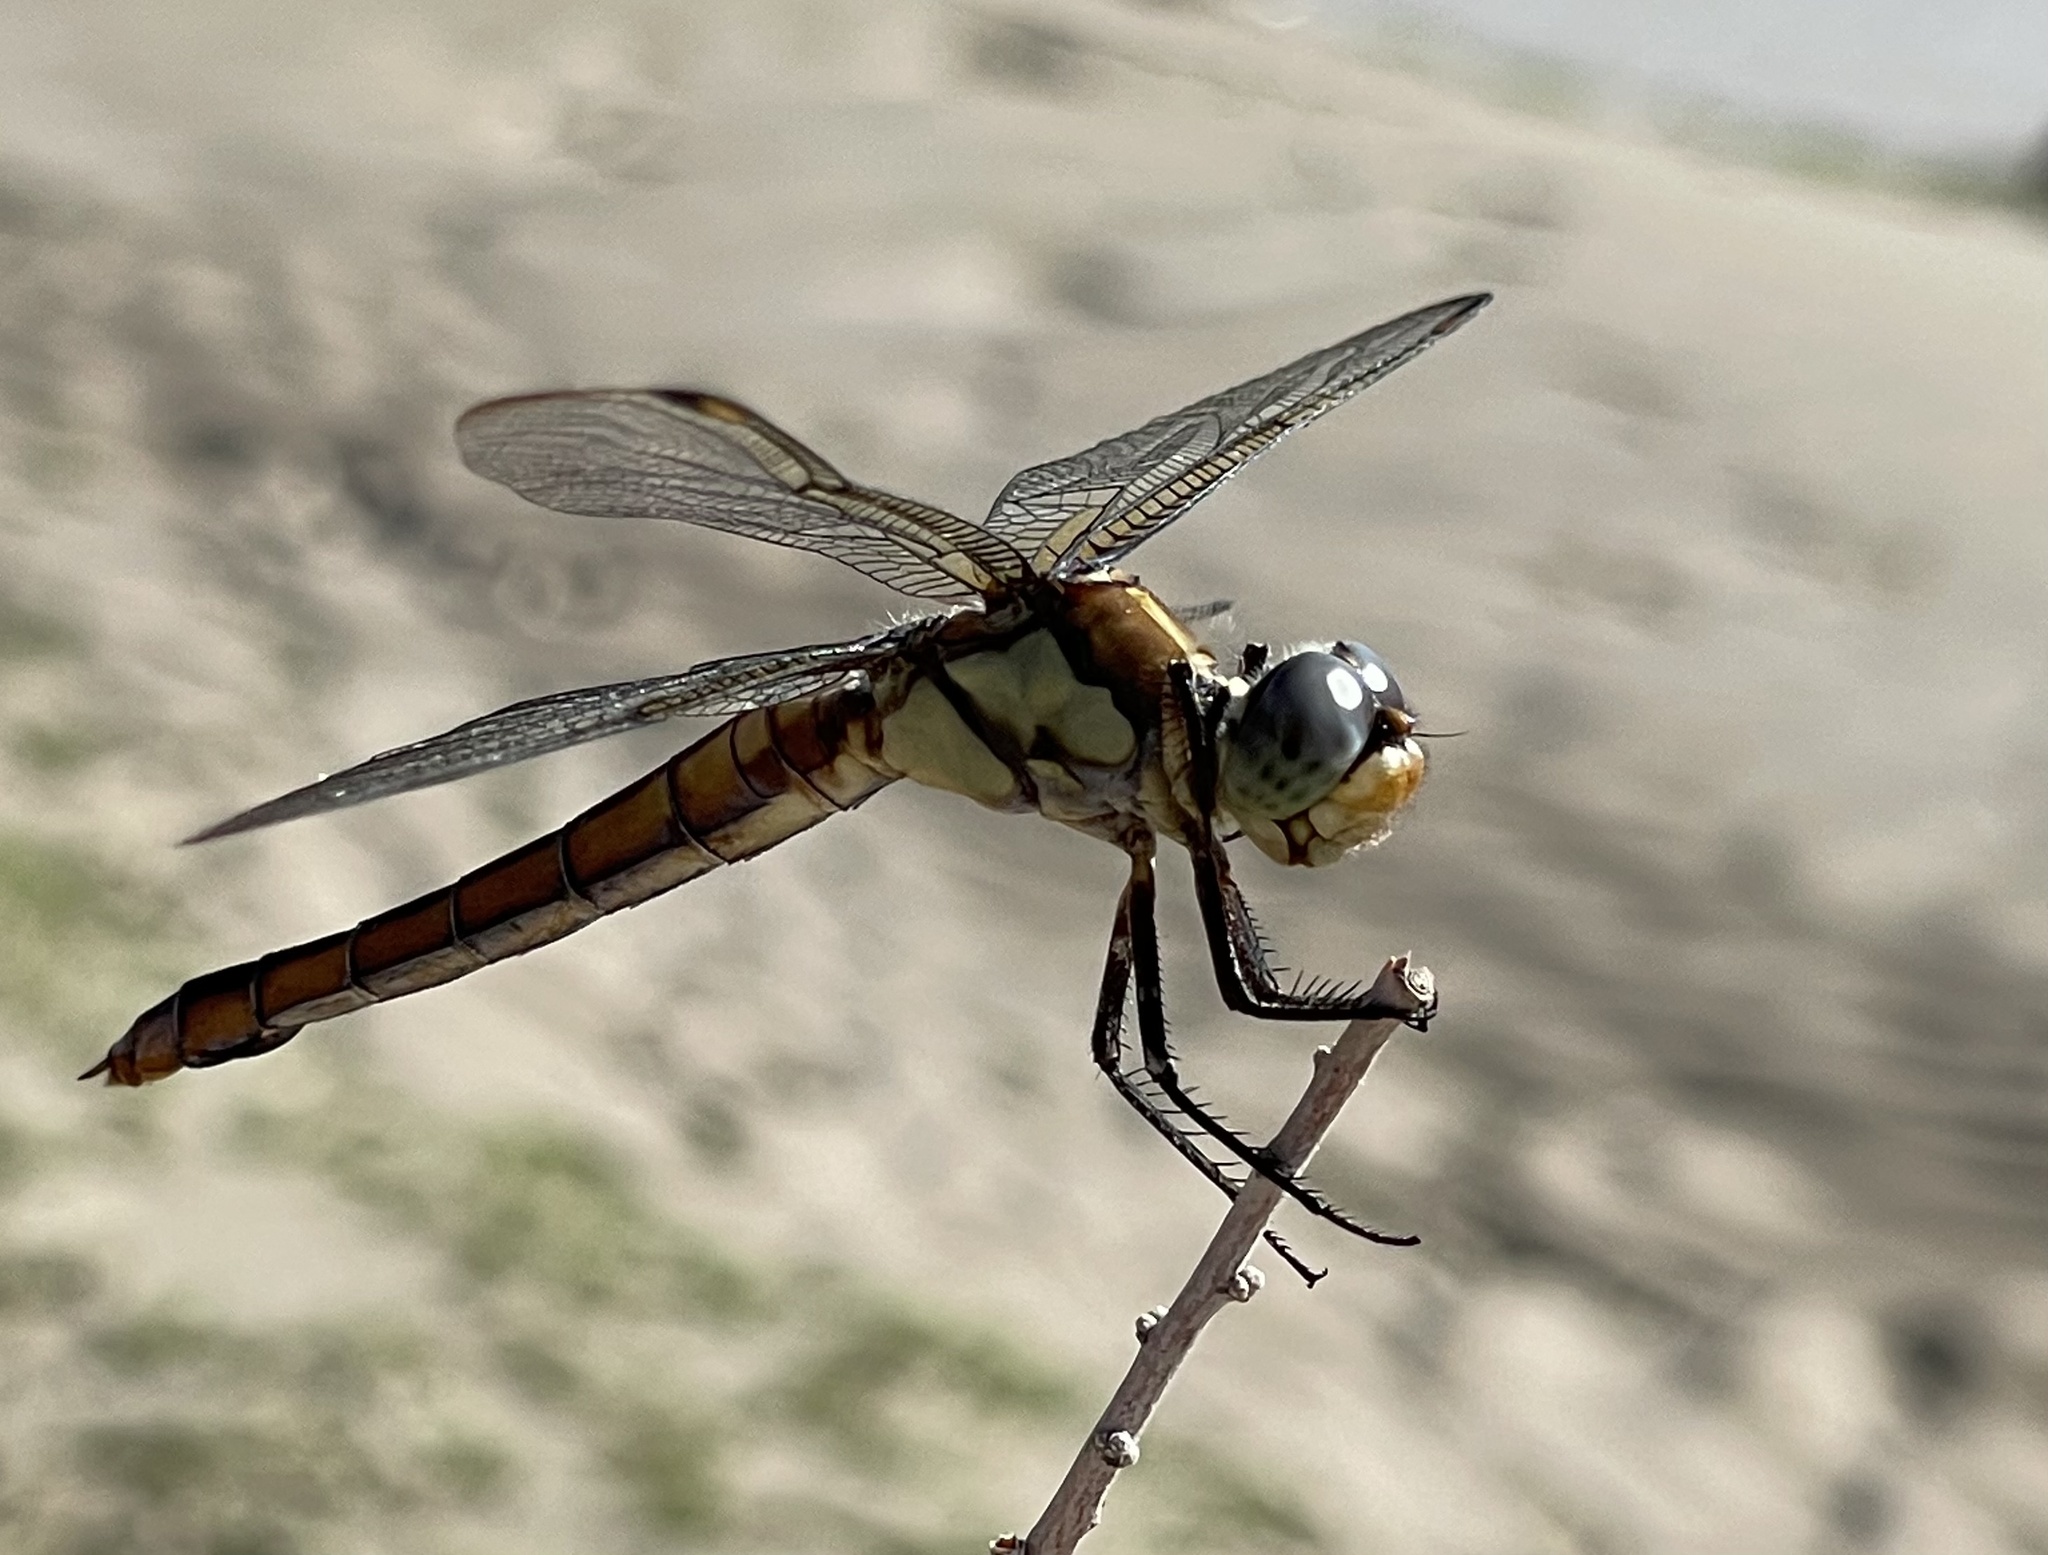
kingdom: Animalia
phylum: Arthropoda
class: Insecta
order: Odonata
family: Libellulidae
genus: Libellula
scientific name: Libellula comanche
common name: Comanche skimmer
